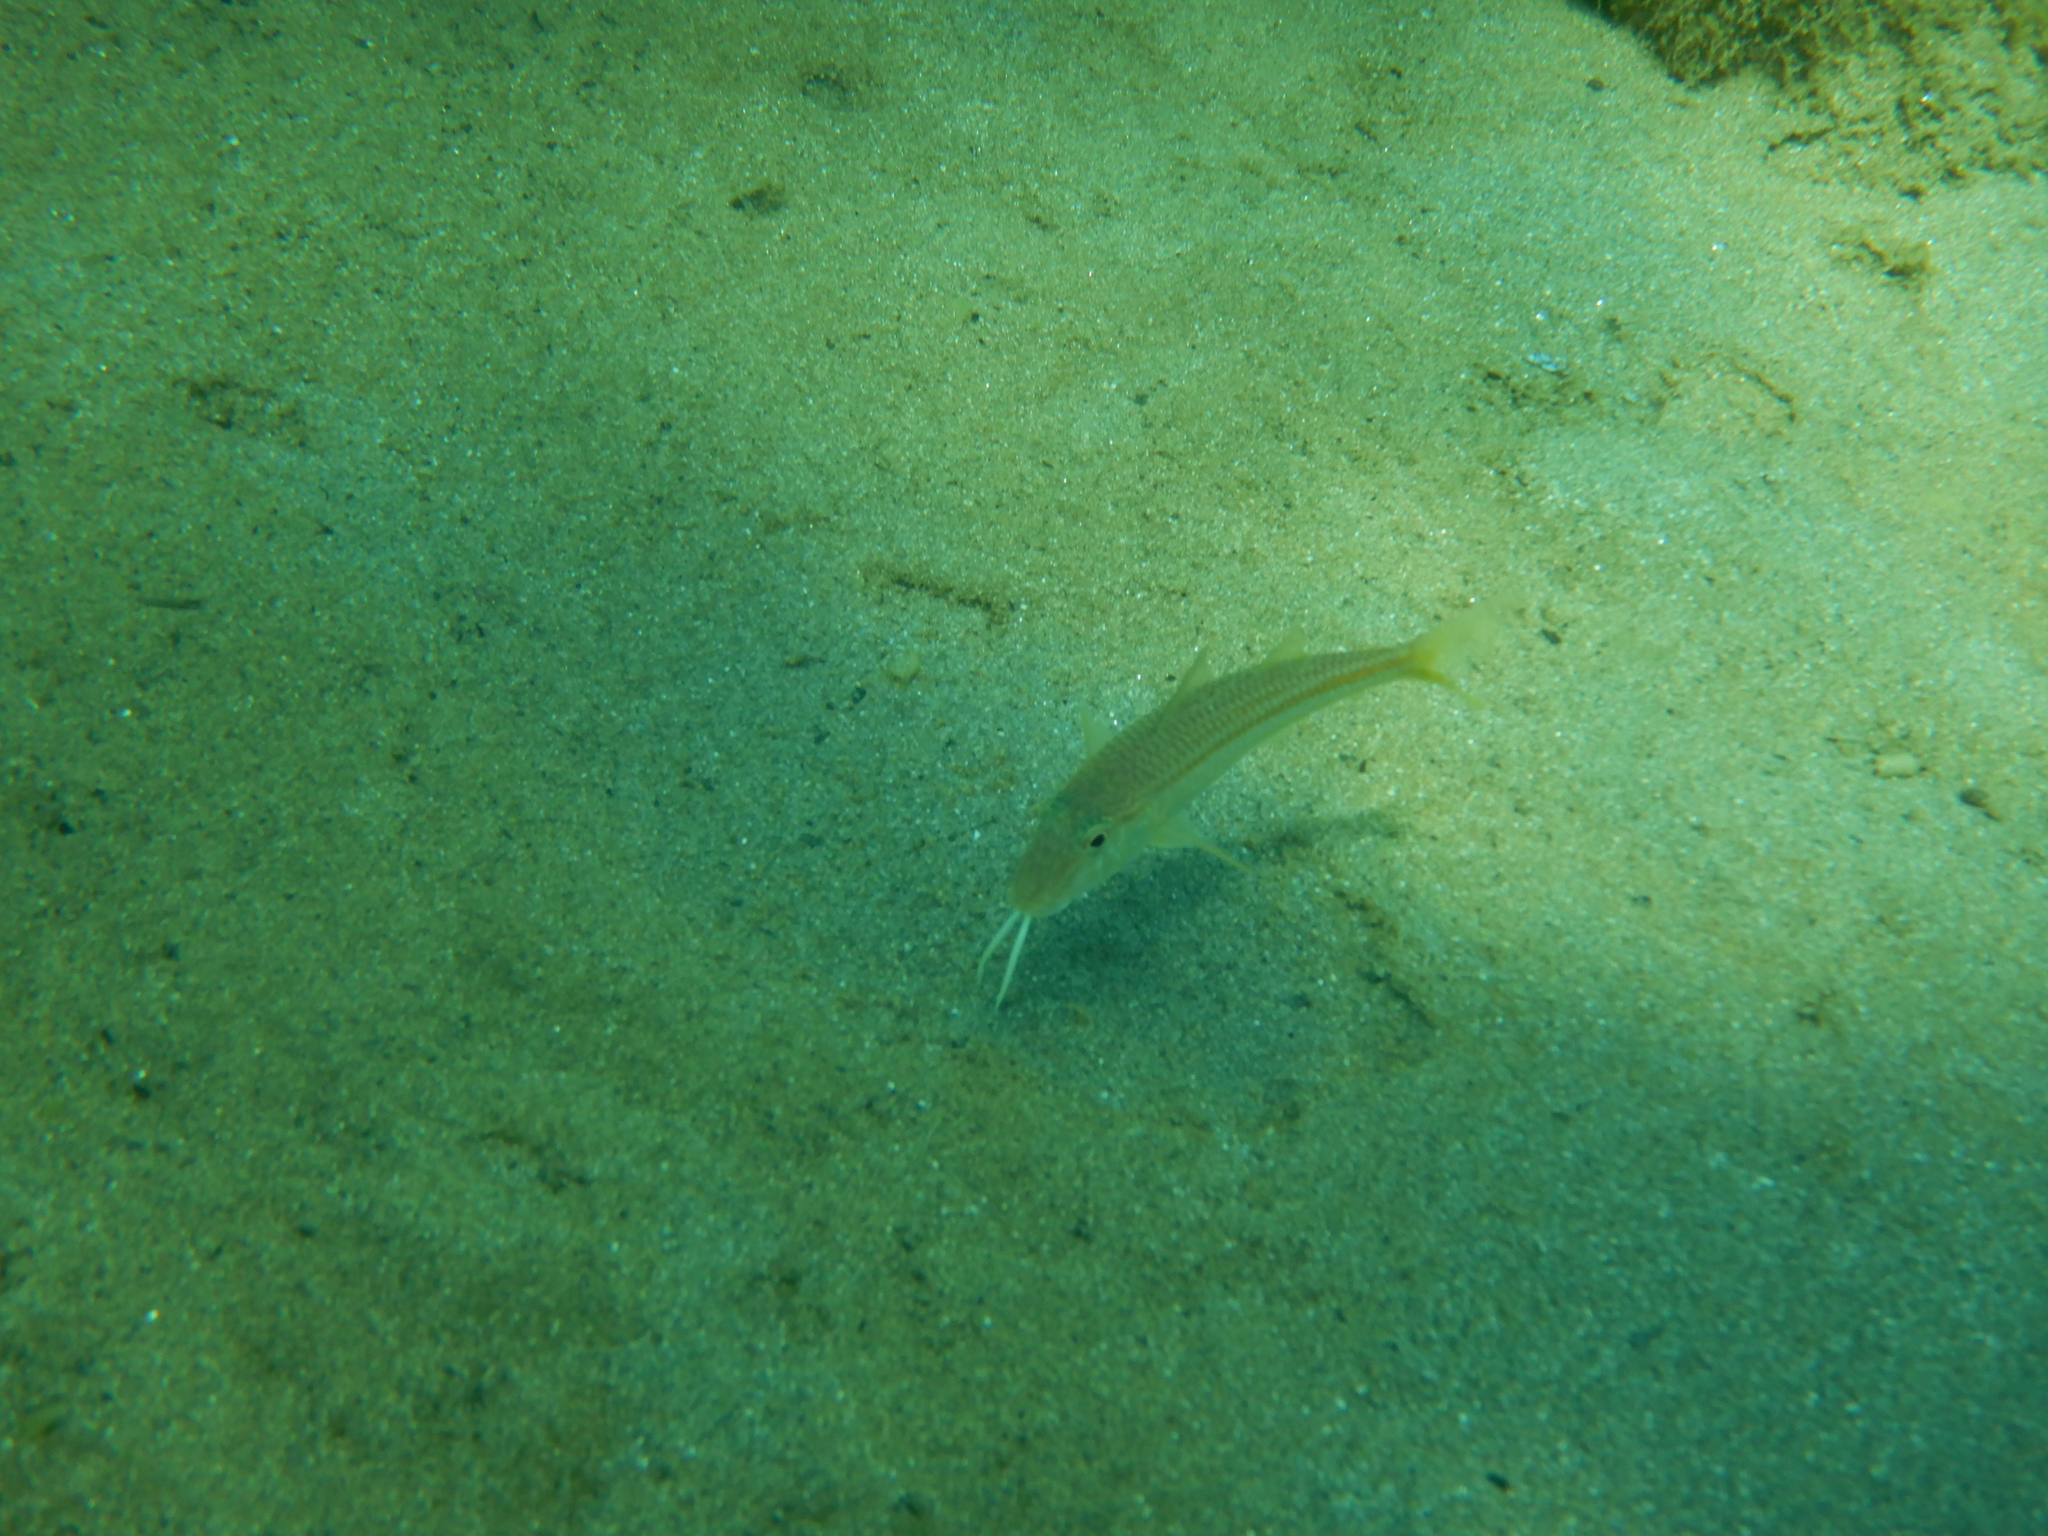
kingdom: Animalia
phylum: Chordata
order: Perciformes
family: Mullidae
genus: Mullus
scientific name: Mullus barbatus
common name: Blunt-snouted mullet
